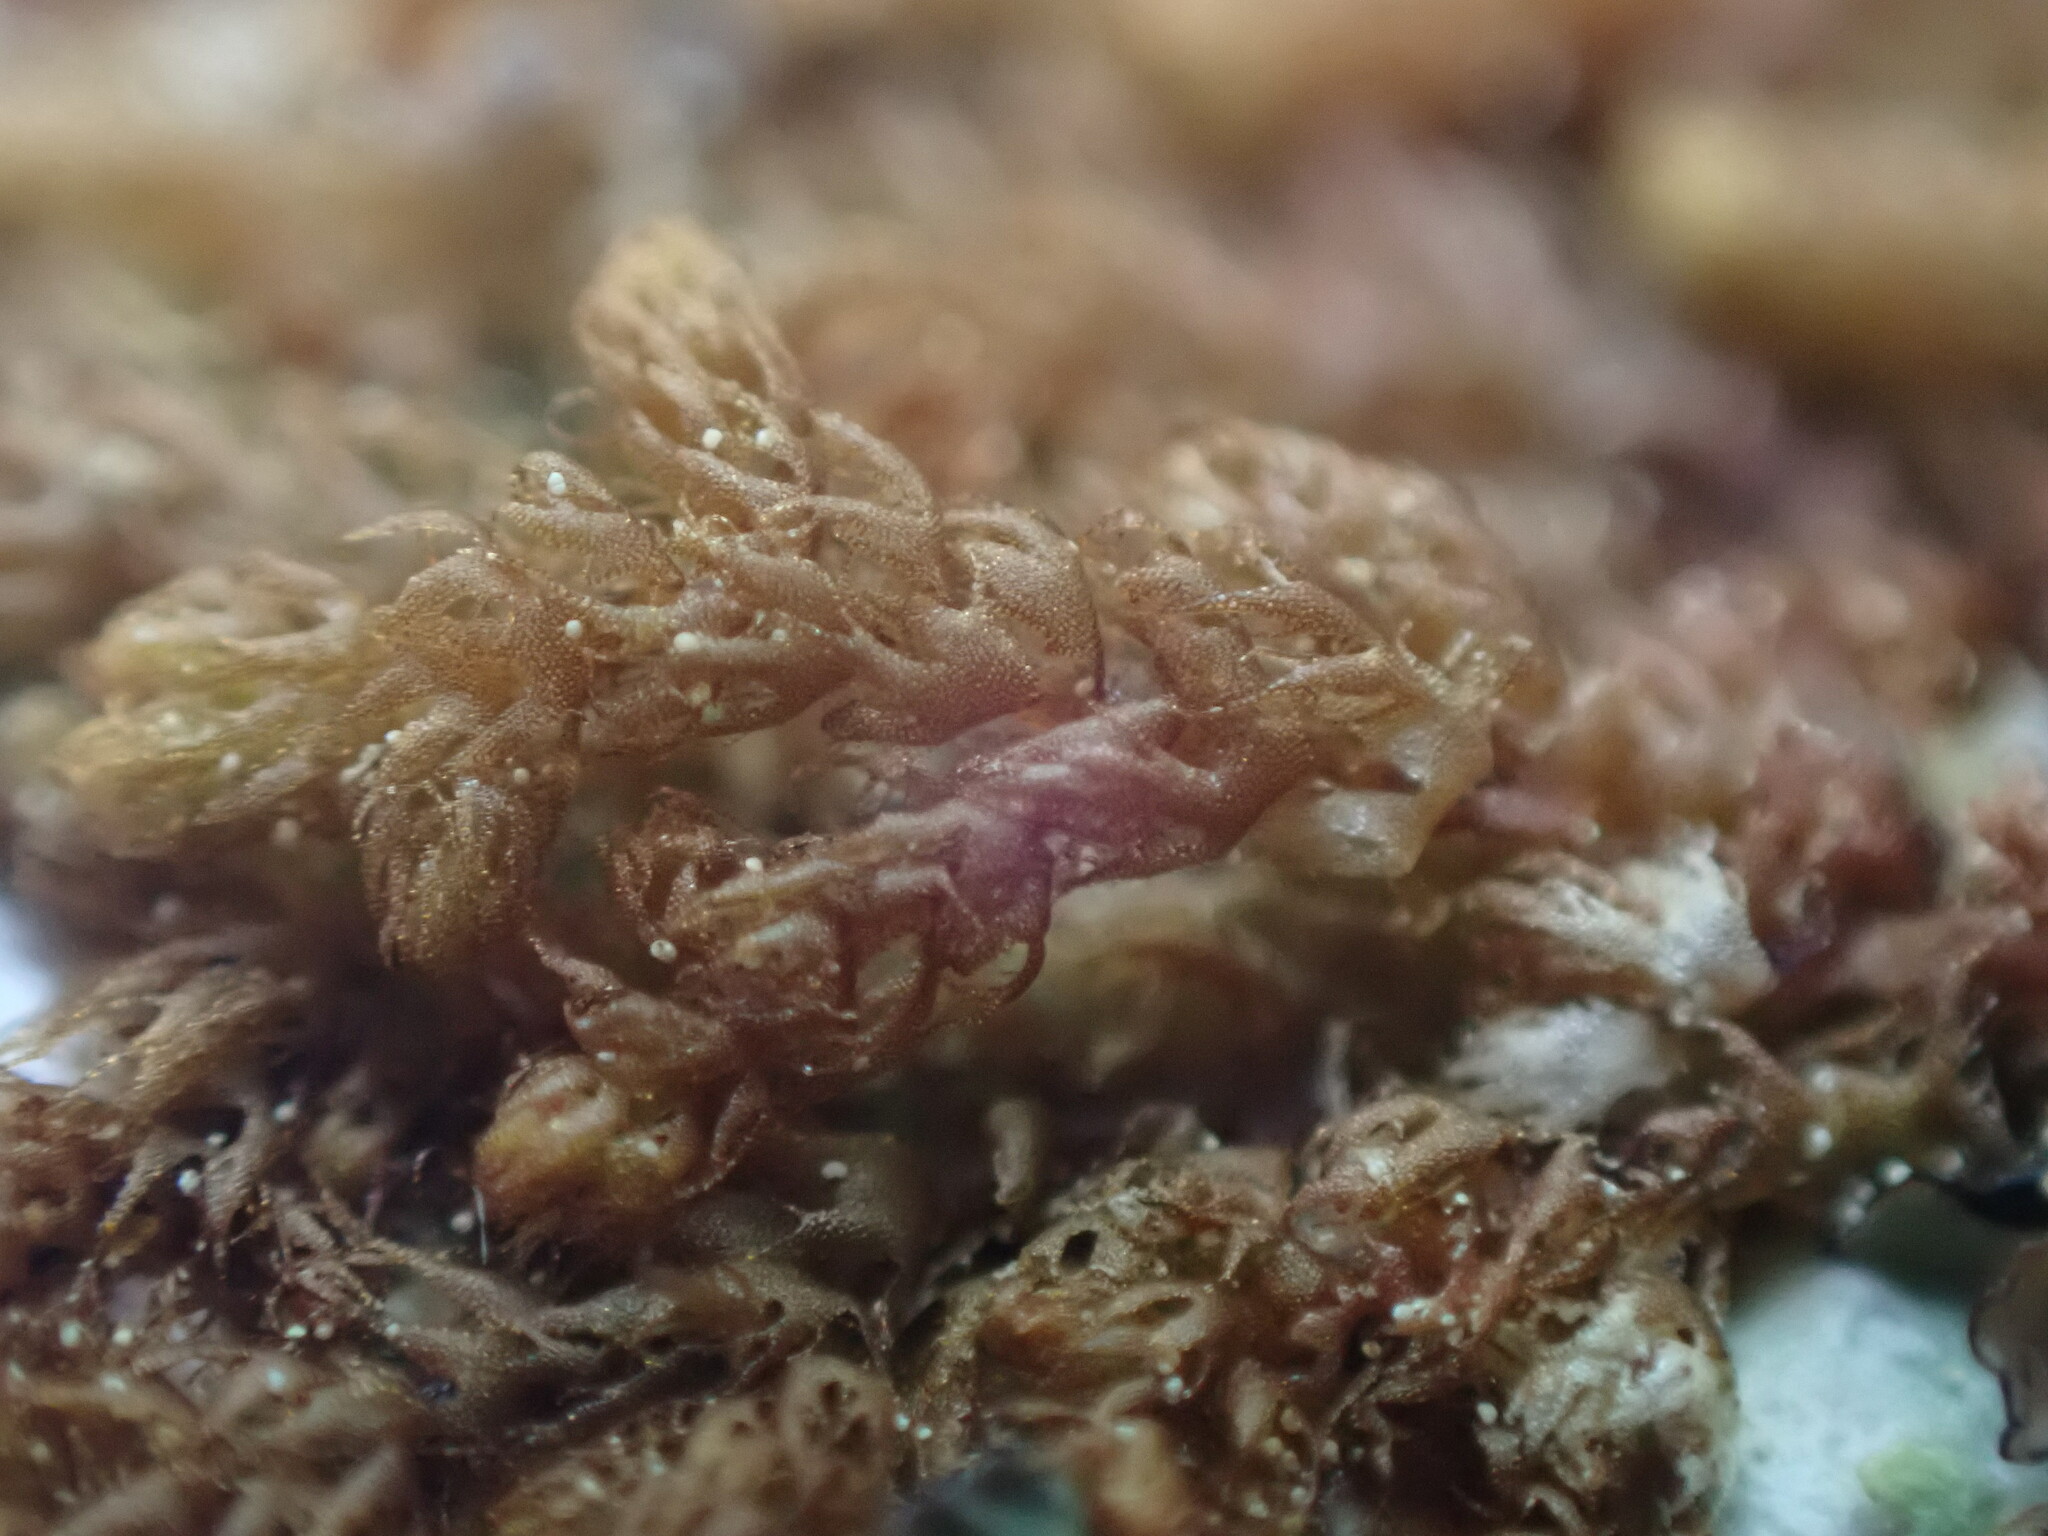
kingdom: Plantae
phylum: Marchantiophyta
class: Jungermanniopsida
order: Ptilidiales
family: Ptilidiaceae
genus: Ptilidium
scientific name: Ptilidium californicum
